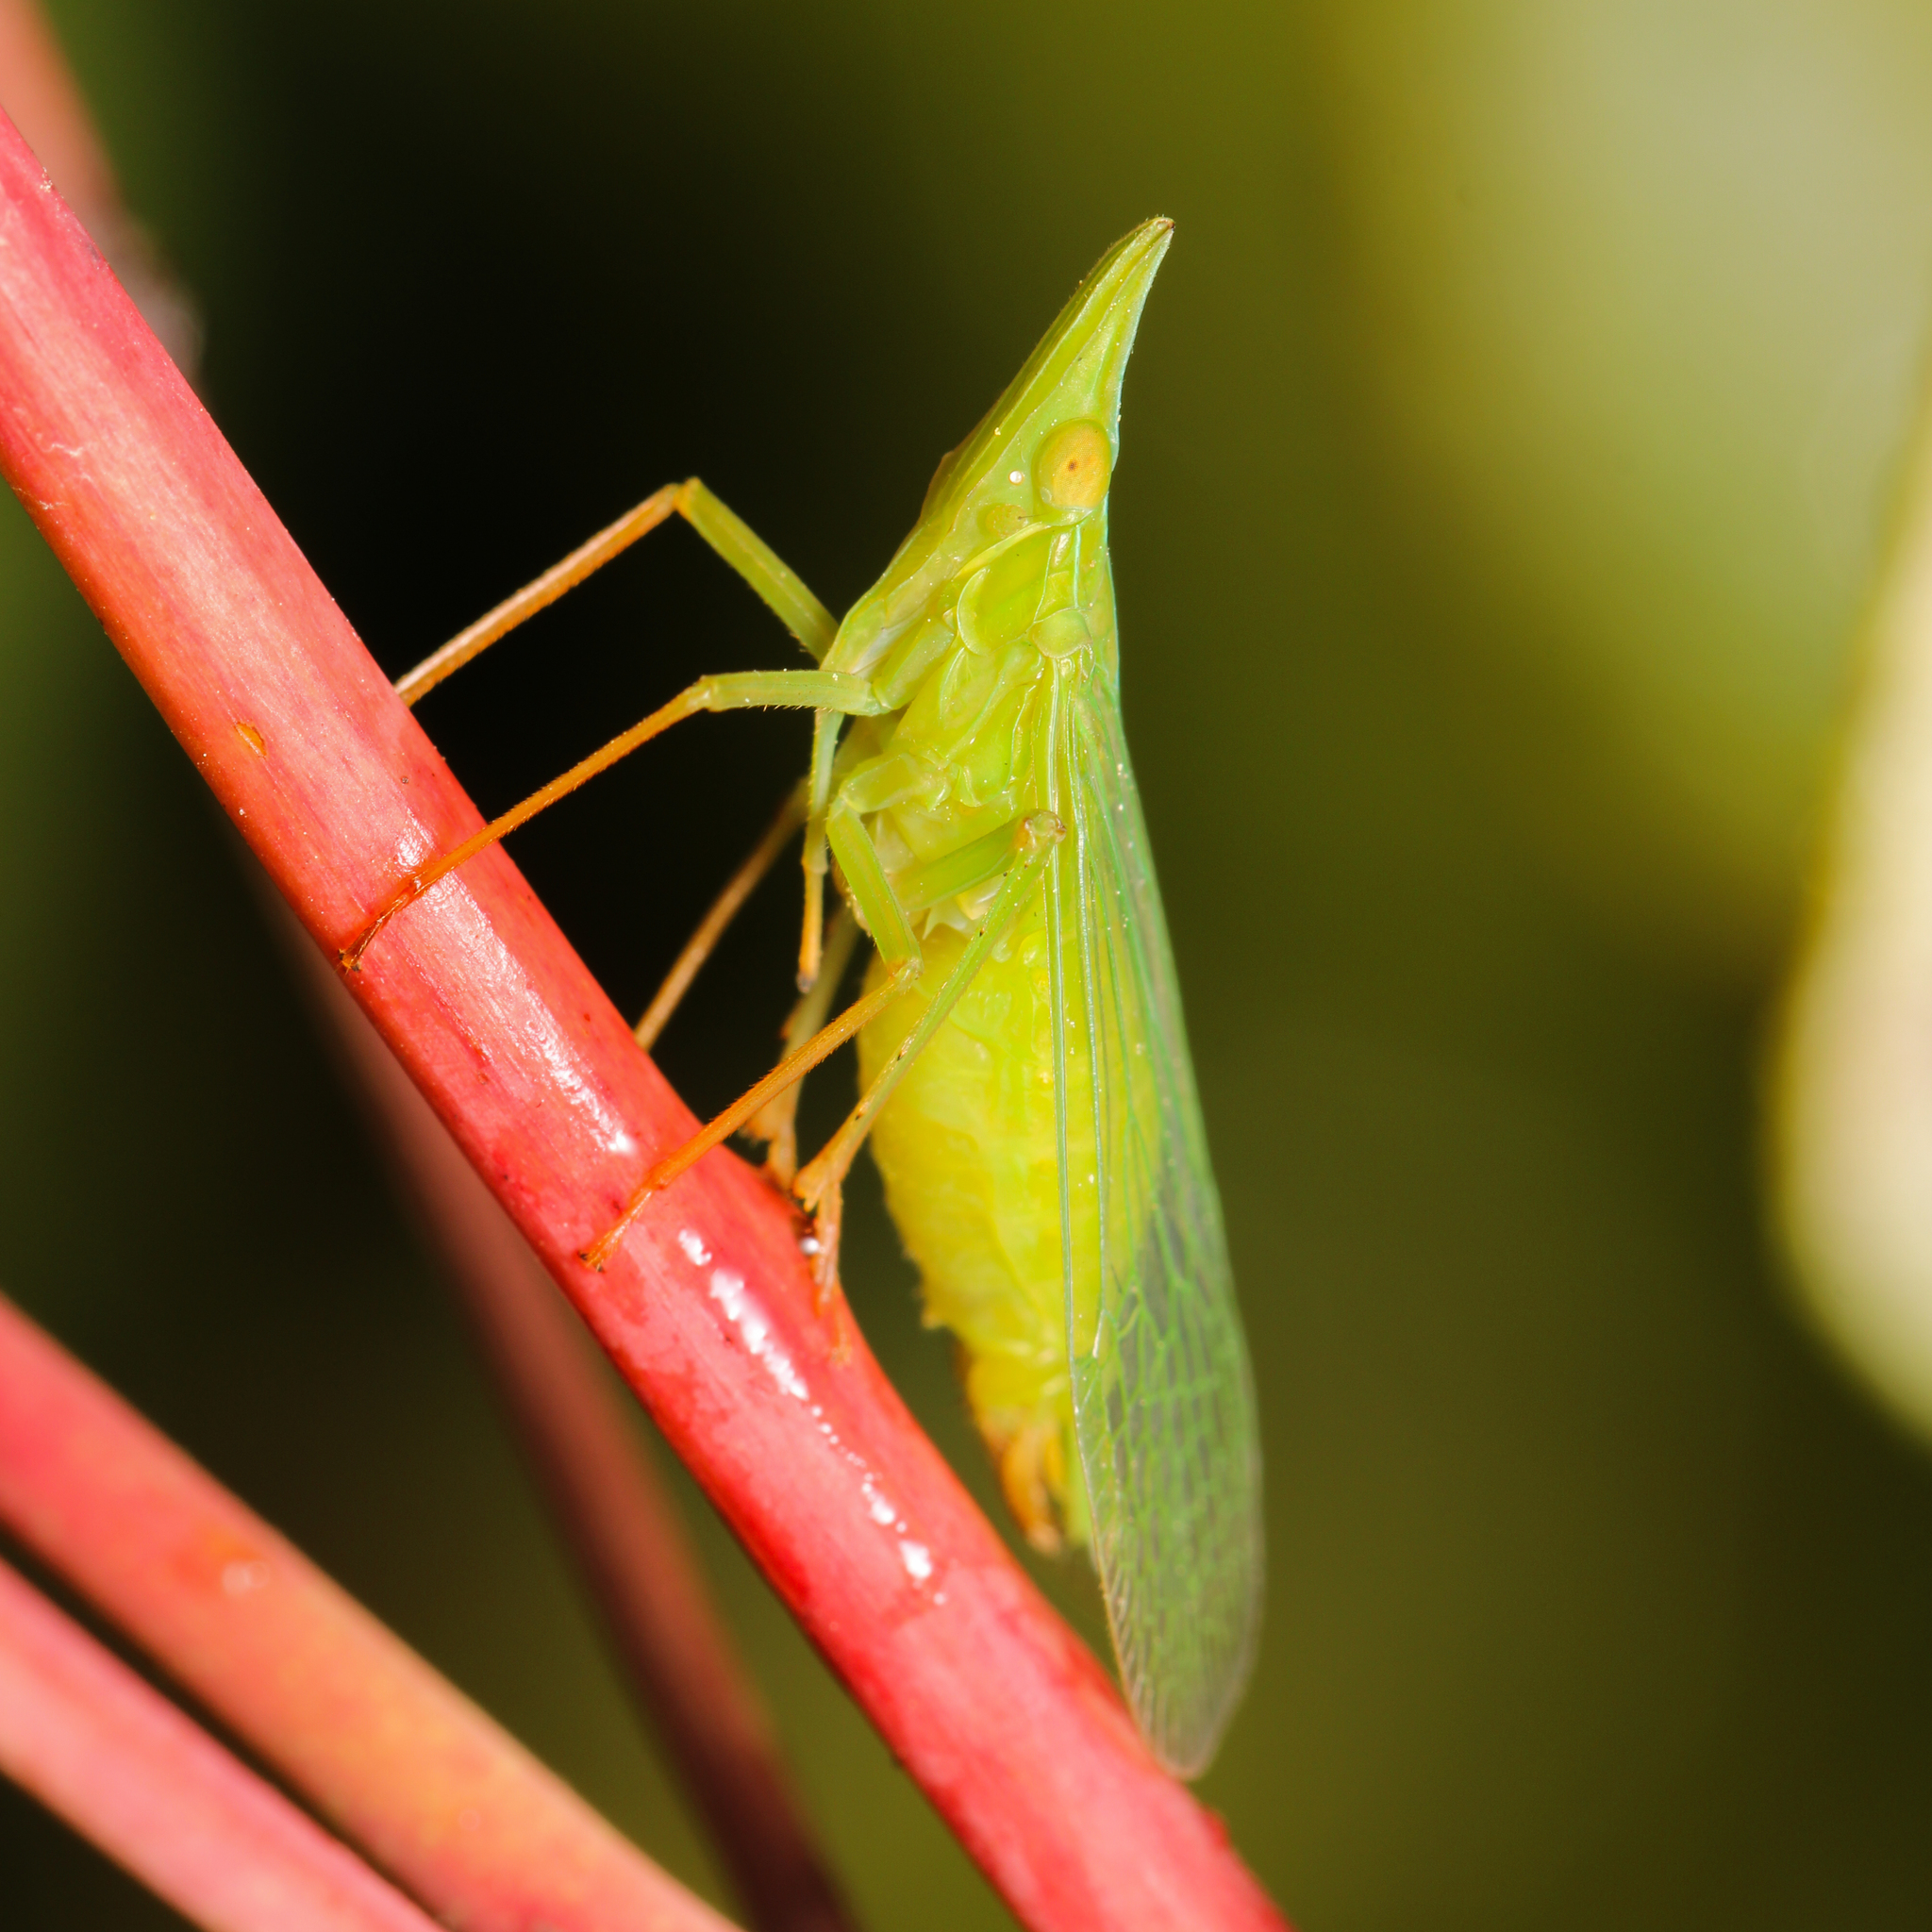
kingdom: Animalia
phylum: Arthropoda
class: Insecta
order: Hemiptera
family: Dictyopharidae
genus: Rhynchomitra
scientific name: Rhynchomitra microrhina
